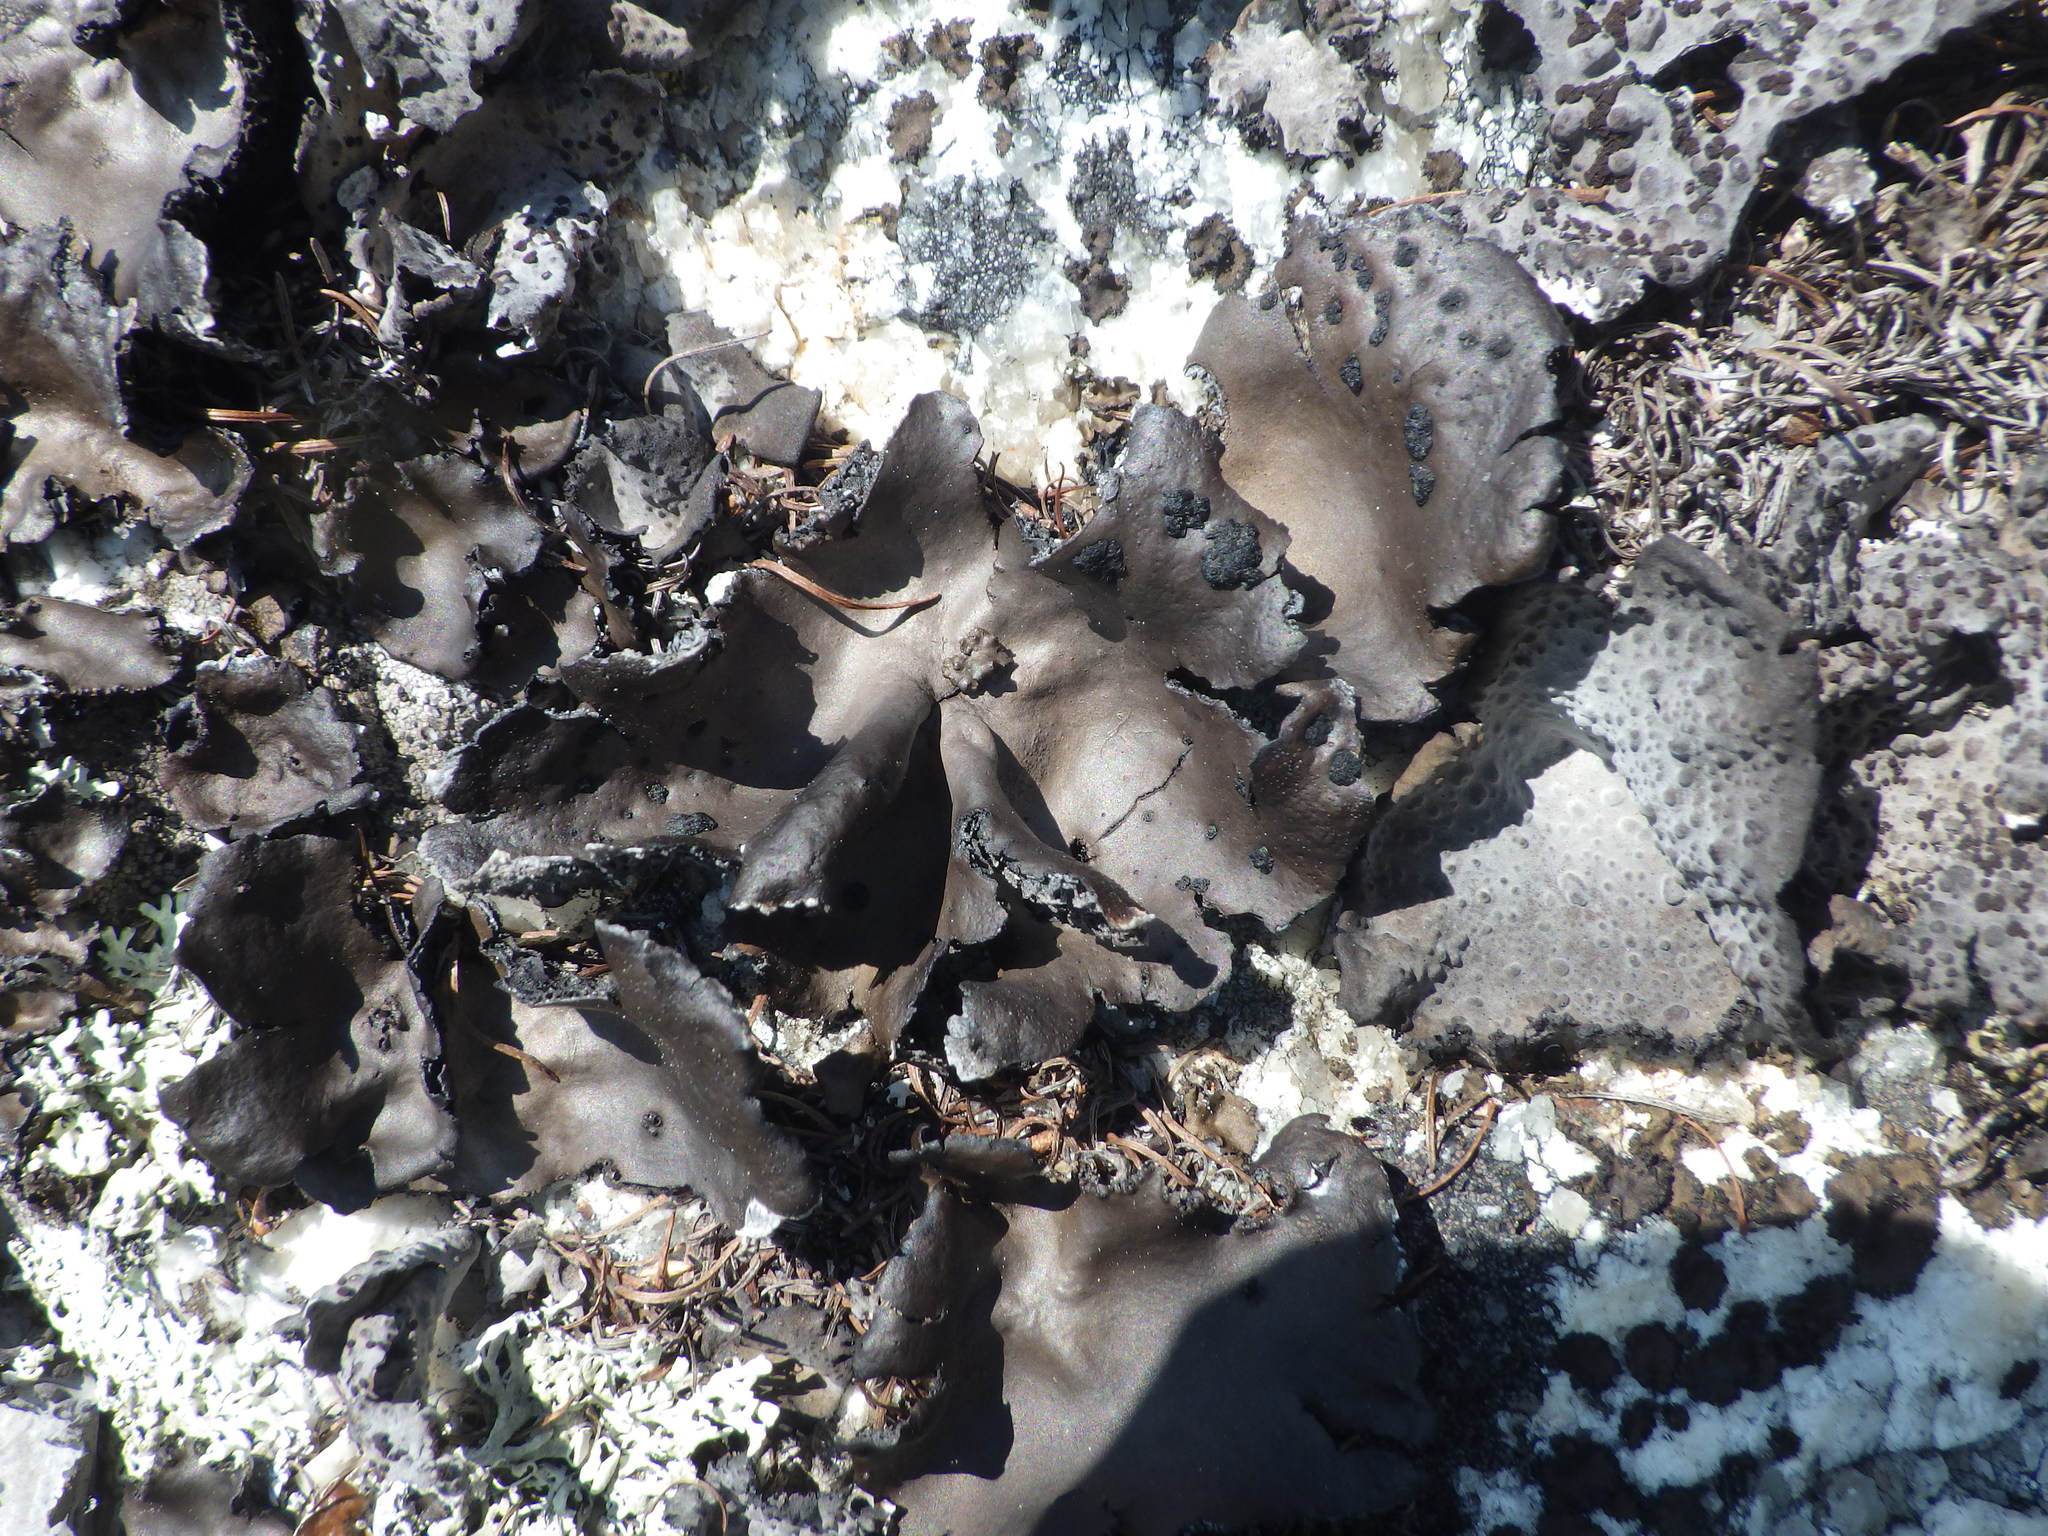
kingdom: Fungi
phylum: Ascomycota
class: Lecanoromycetes
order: Umbilicariales
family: Umbilicariaceae
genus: Umbilicaria
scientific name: Umbilicaria muhlenbergii
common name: Lesser rocktripe
